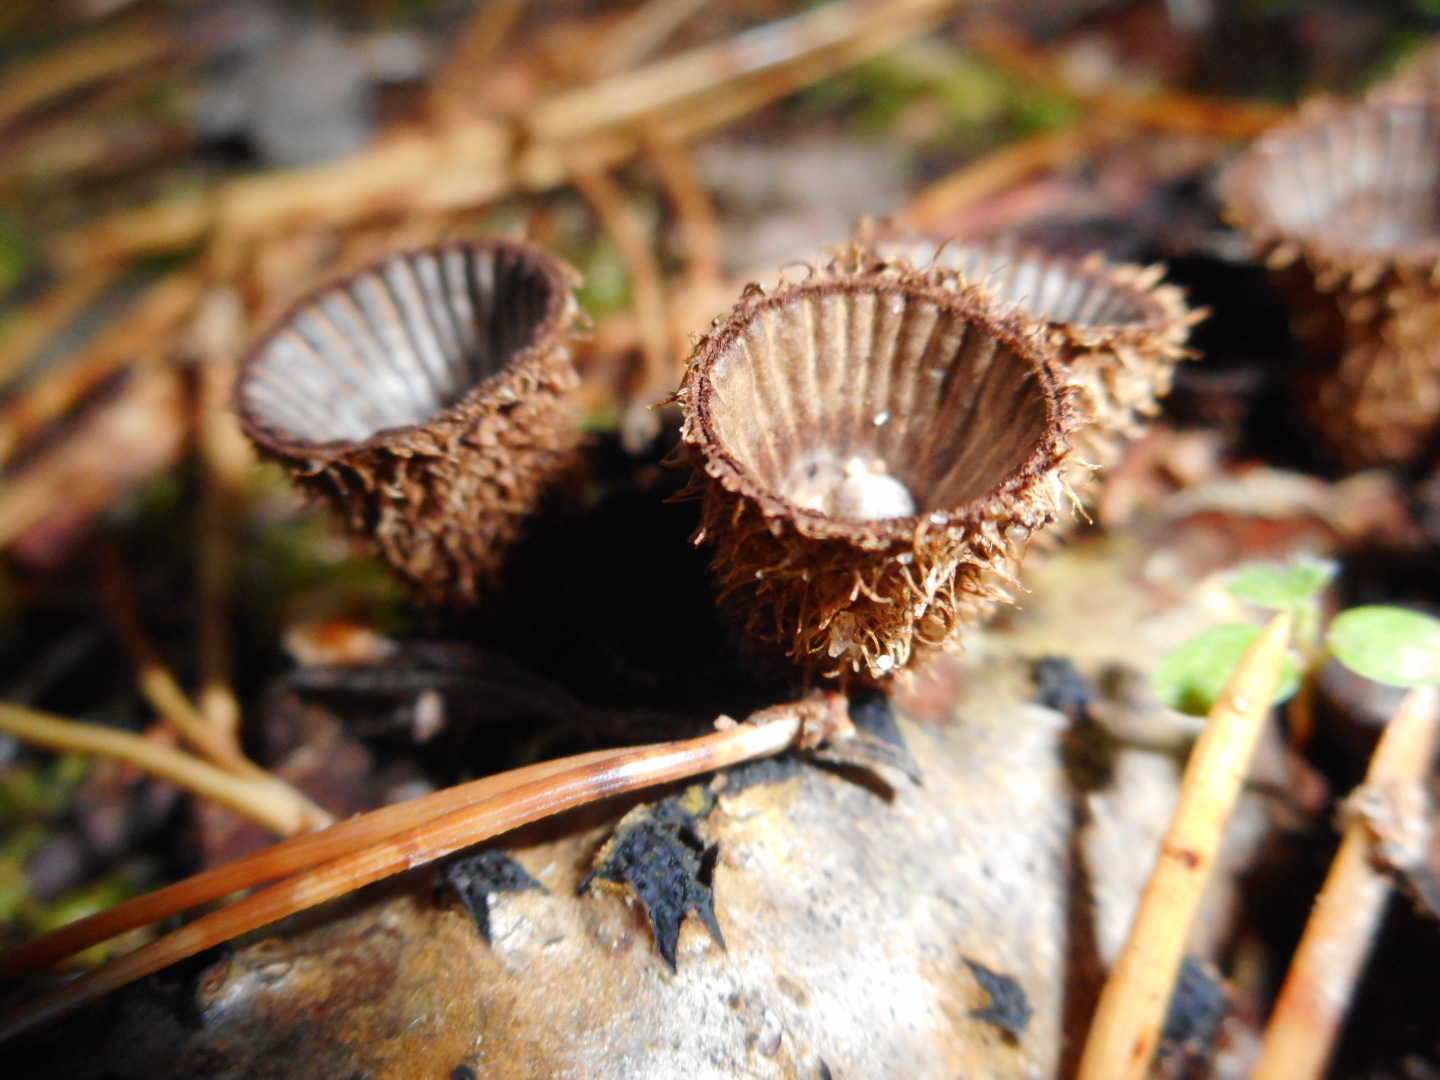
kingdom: Fungi
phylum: Basidiomycota
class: Agaricomycetes
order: Agaricales
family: Agaricaceae
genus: Cyathus
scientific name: Cyathus striatus
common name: Fluted bird's nest
